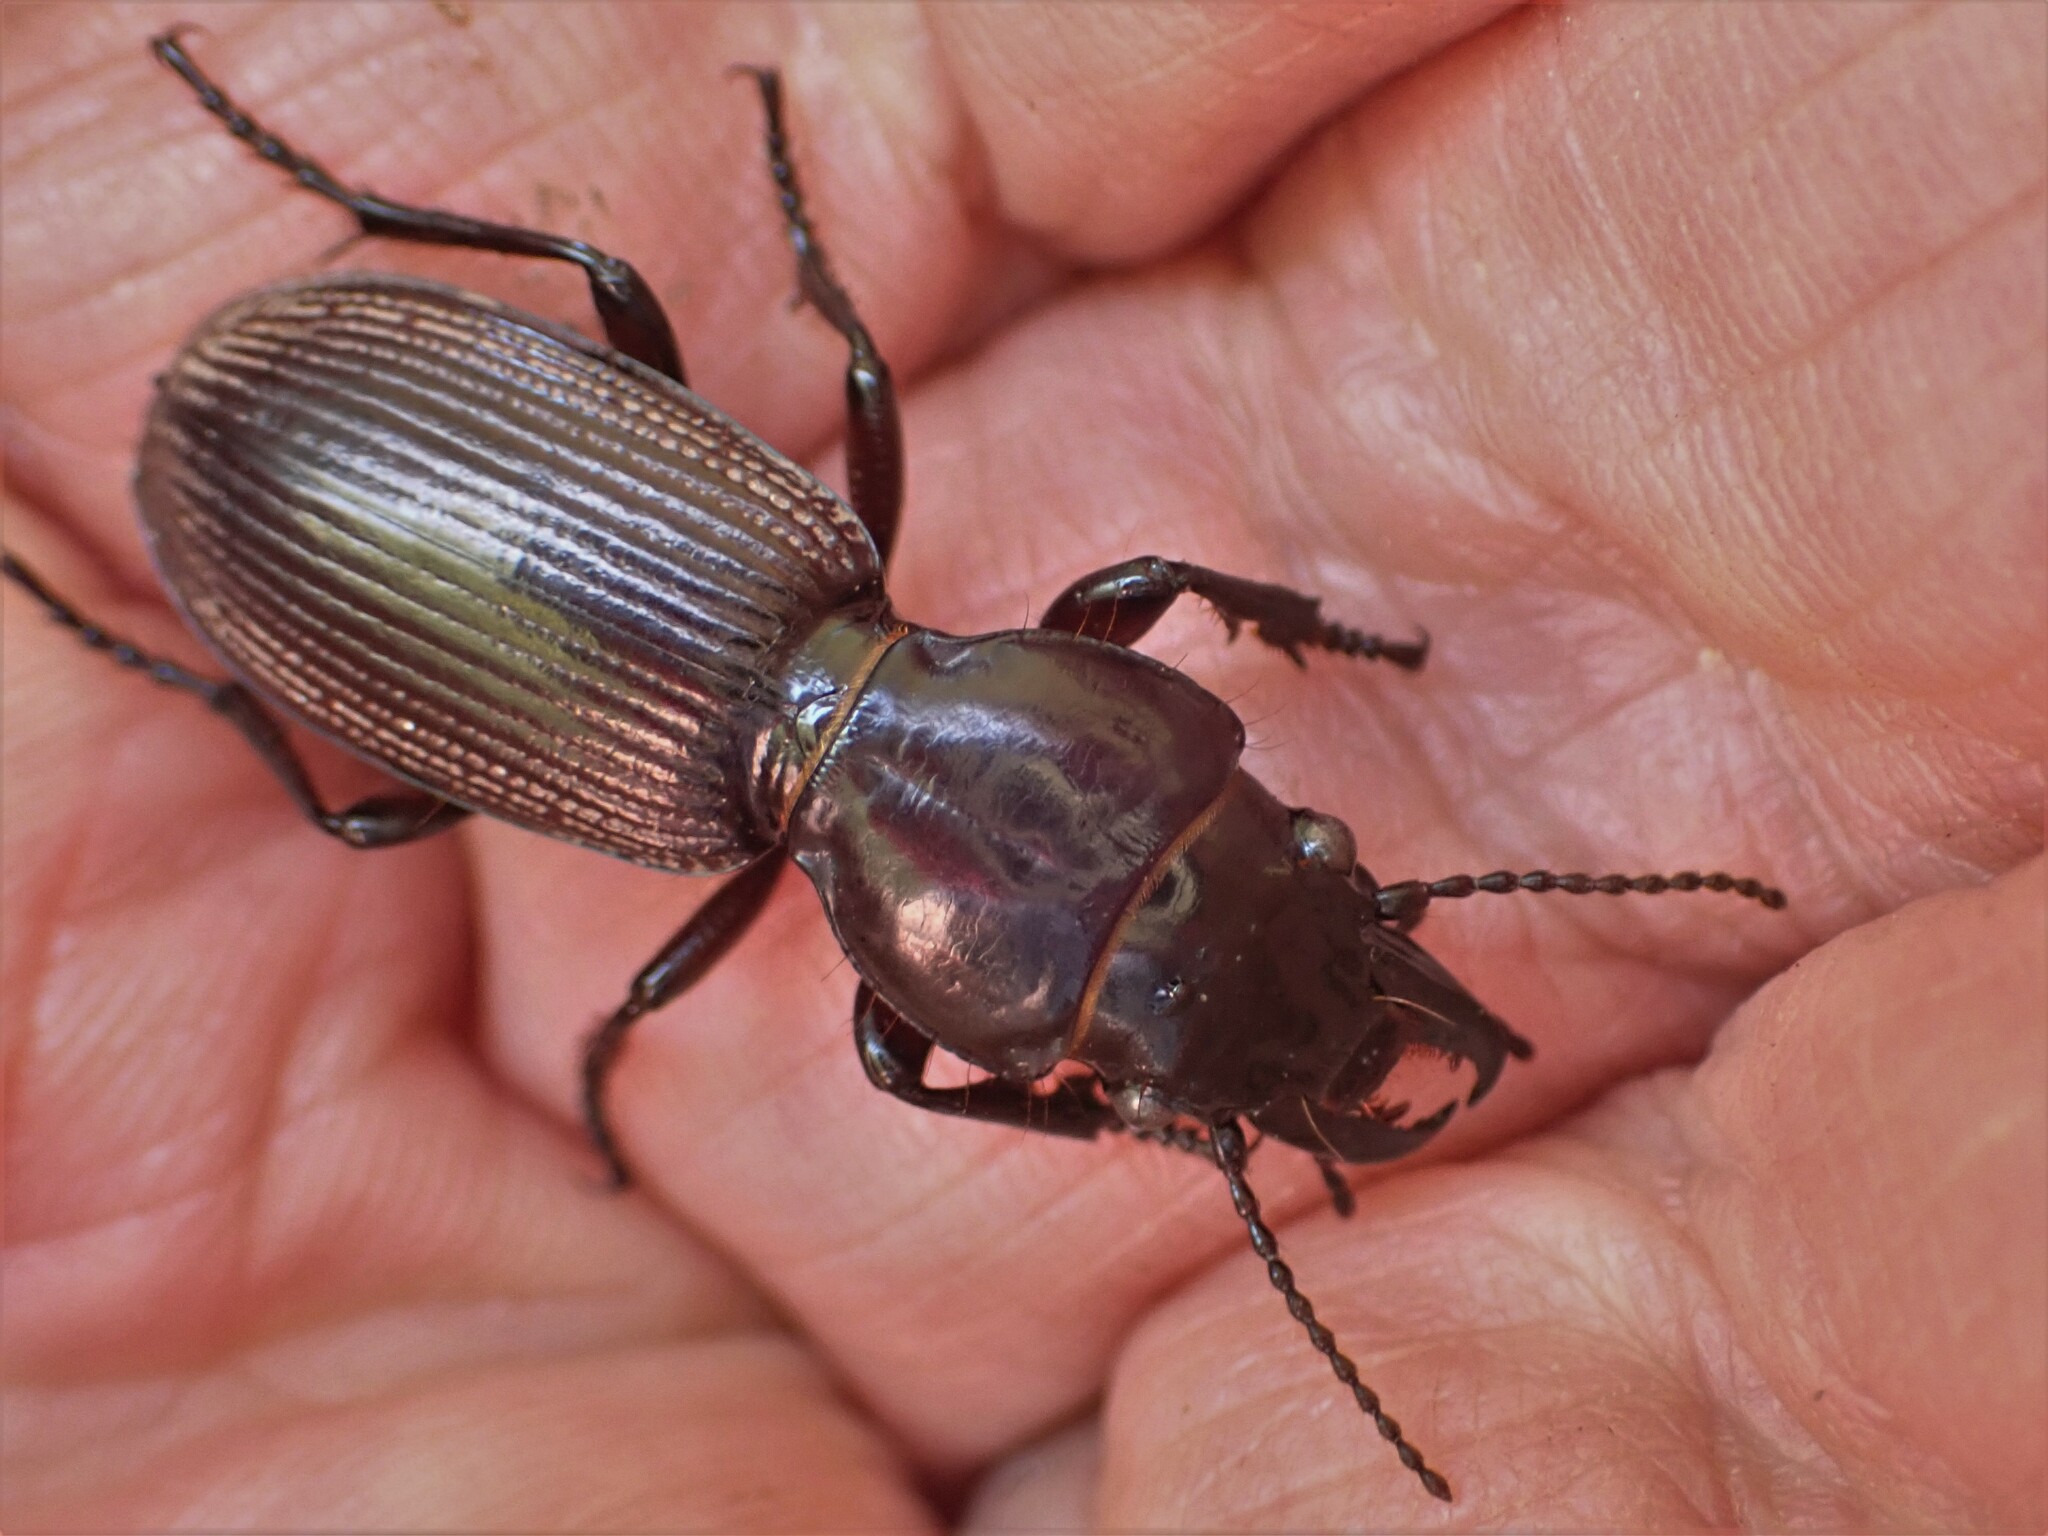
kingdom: Animalia
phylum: Arthropoda
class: Insecta
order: Coleoptera
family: Carabidae
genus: Mecodema
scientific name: Mecodema fulgidum
